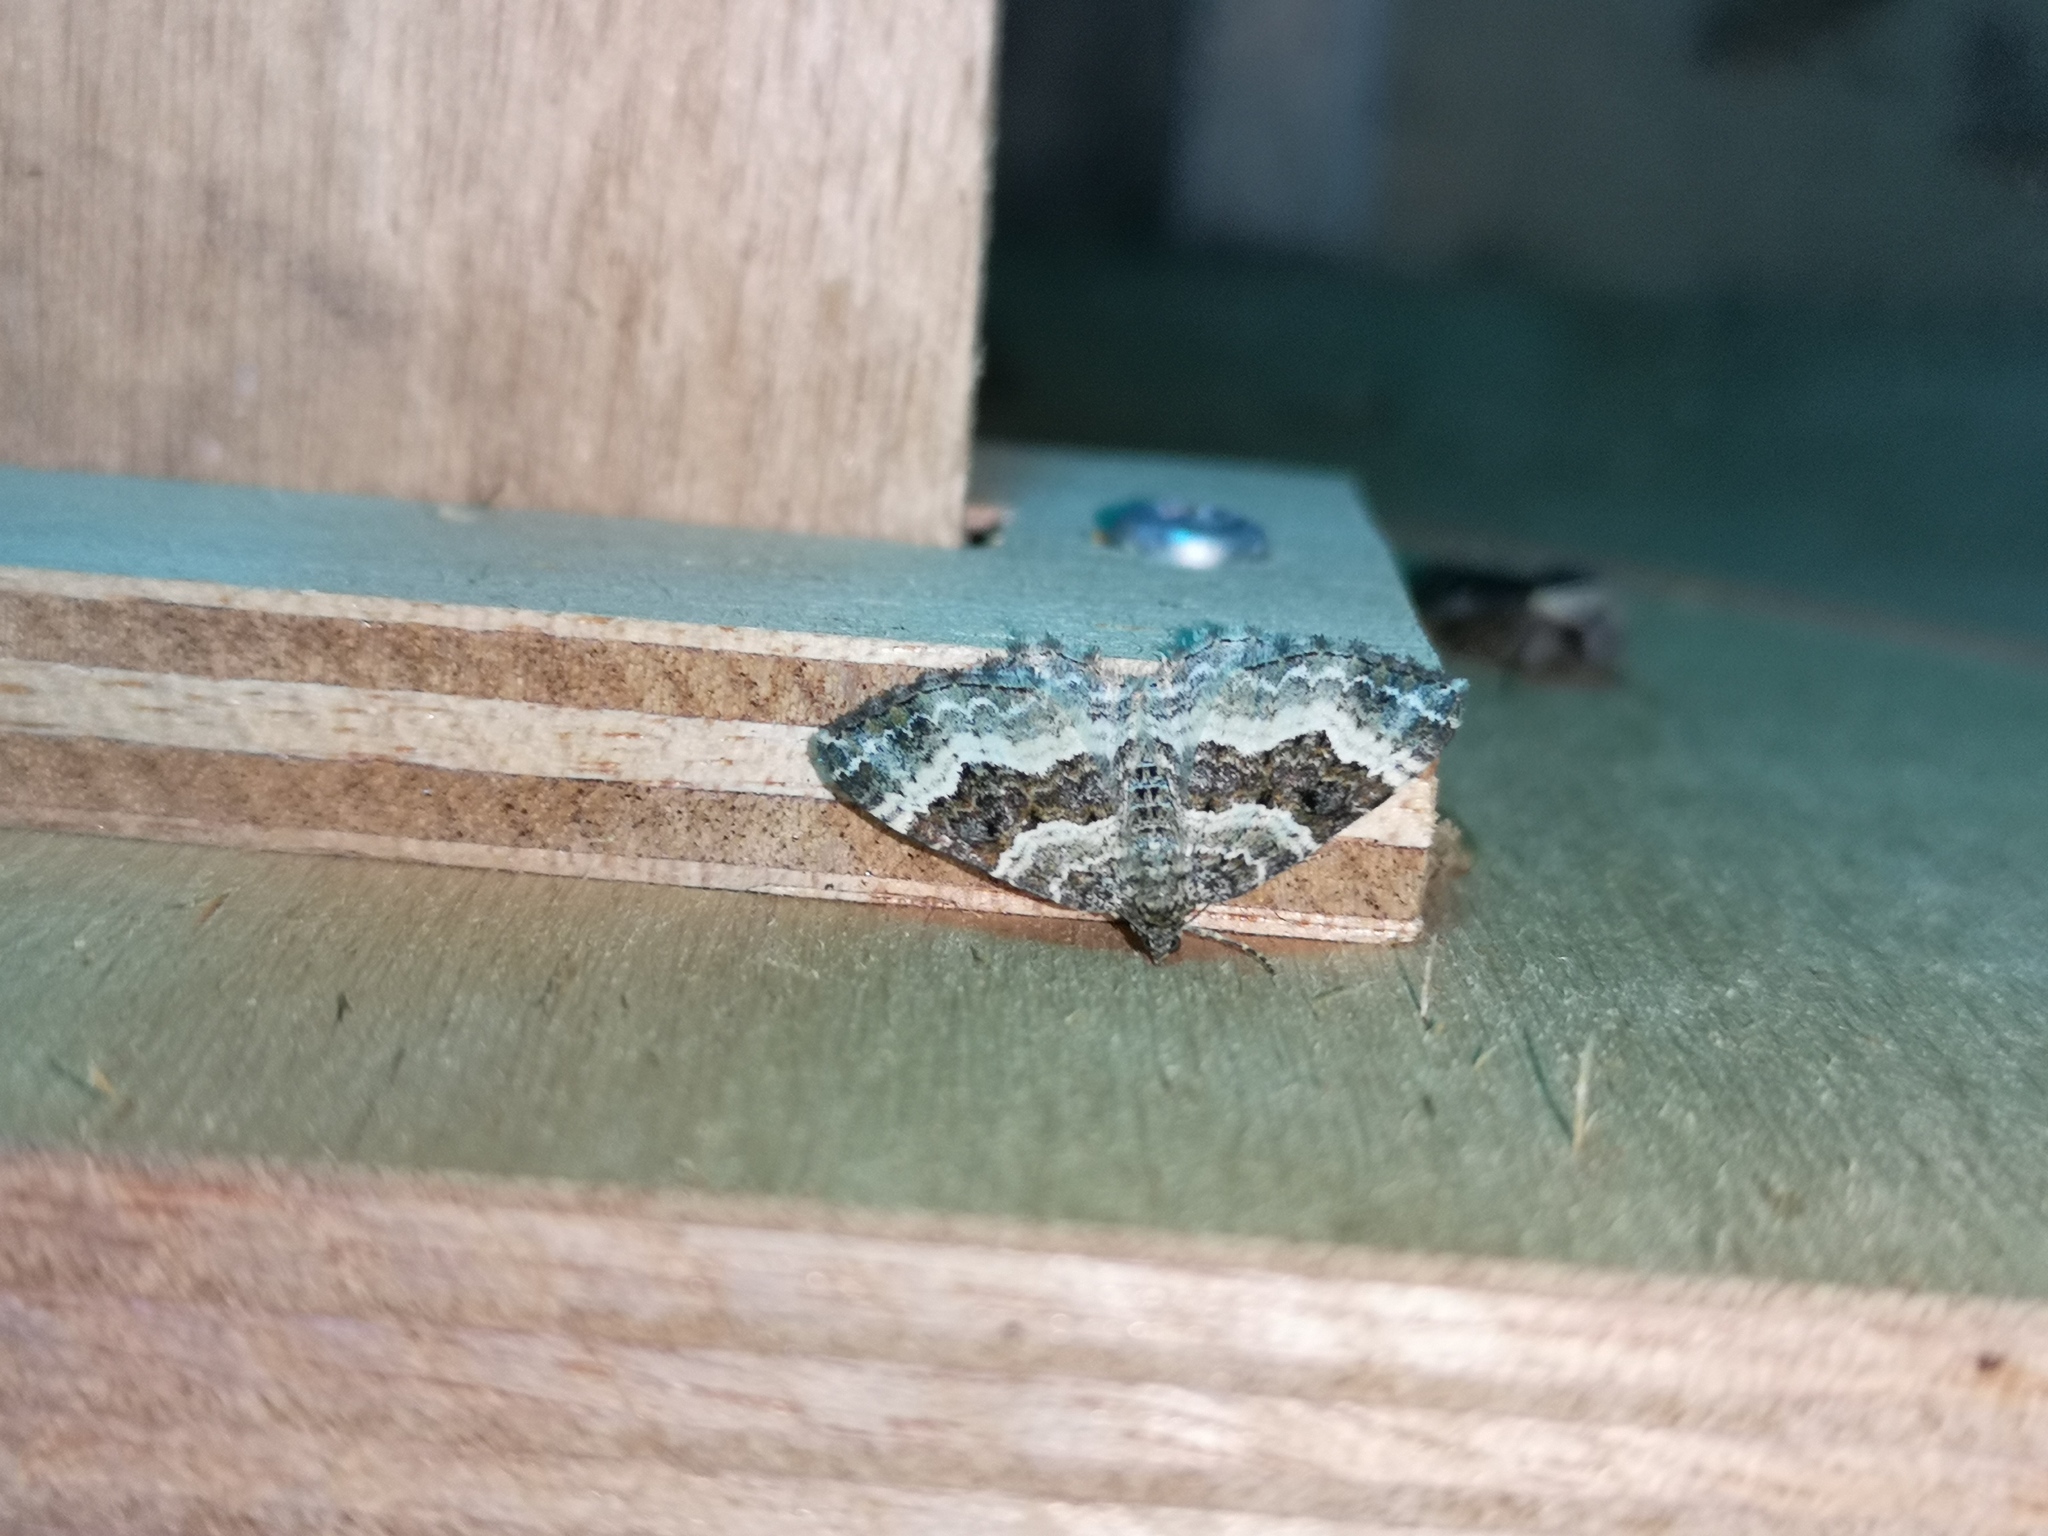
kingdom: Animalia
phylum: Arthropoda
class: Insecta
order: Lepidoptera
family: Geometridae
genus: Epirrhoe
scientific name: Epirrhoe alternata
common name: Common carpet
